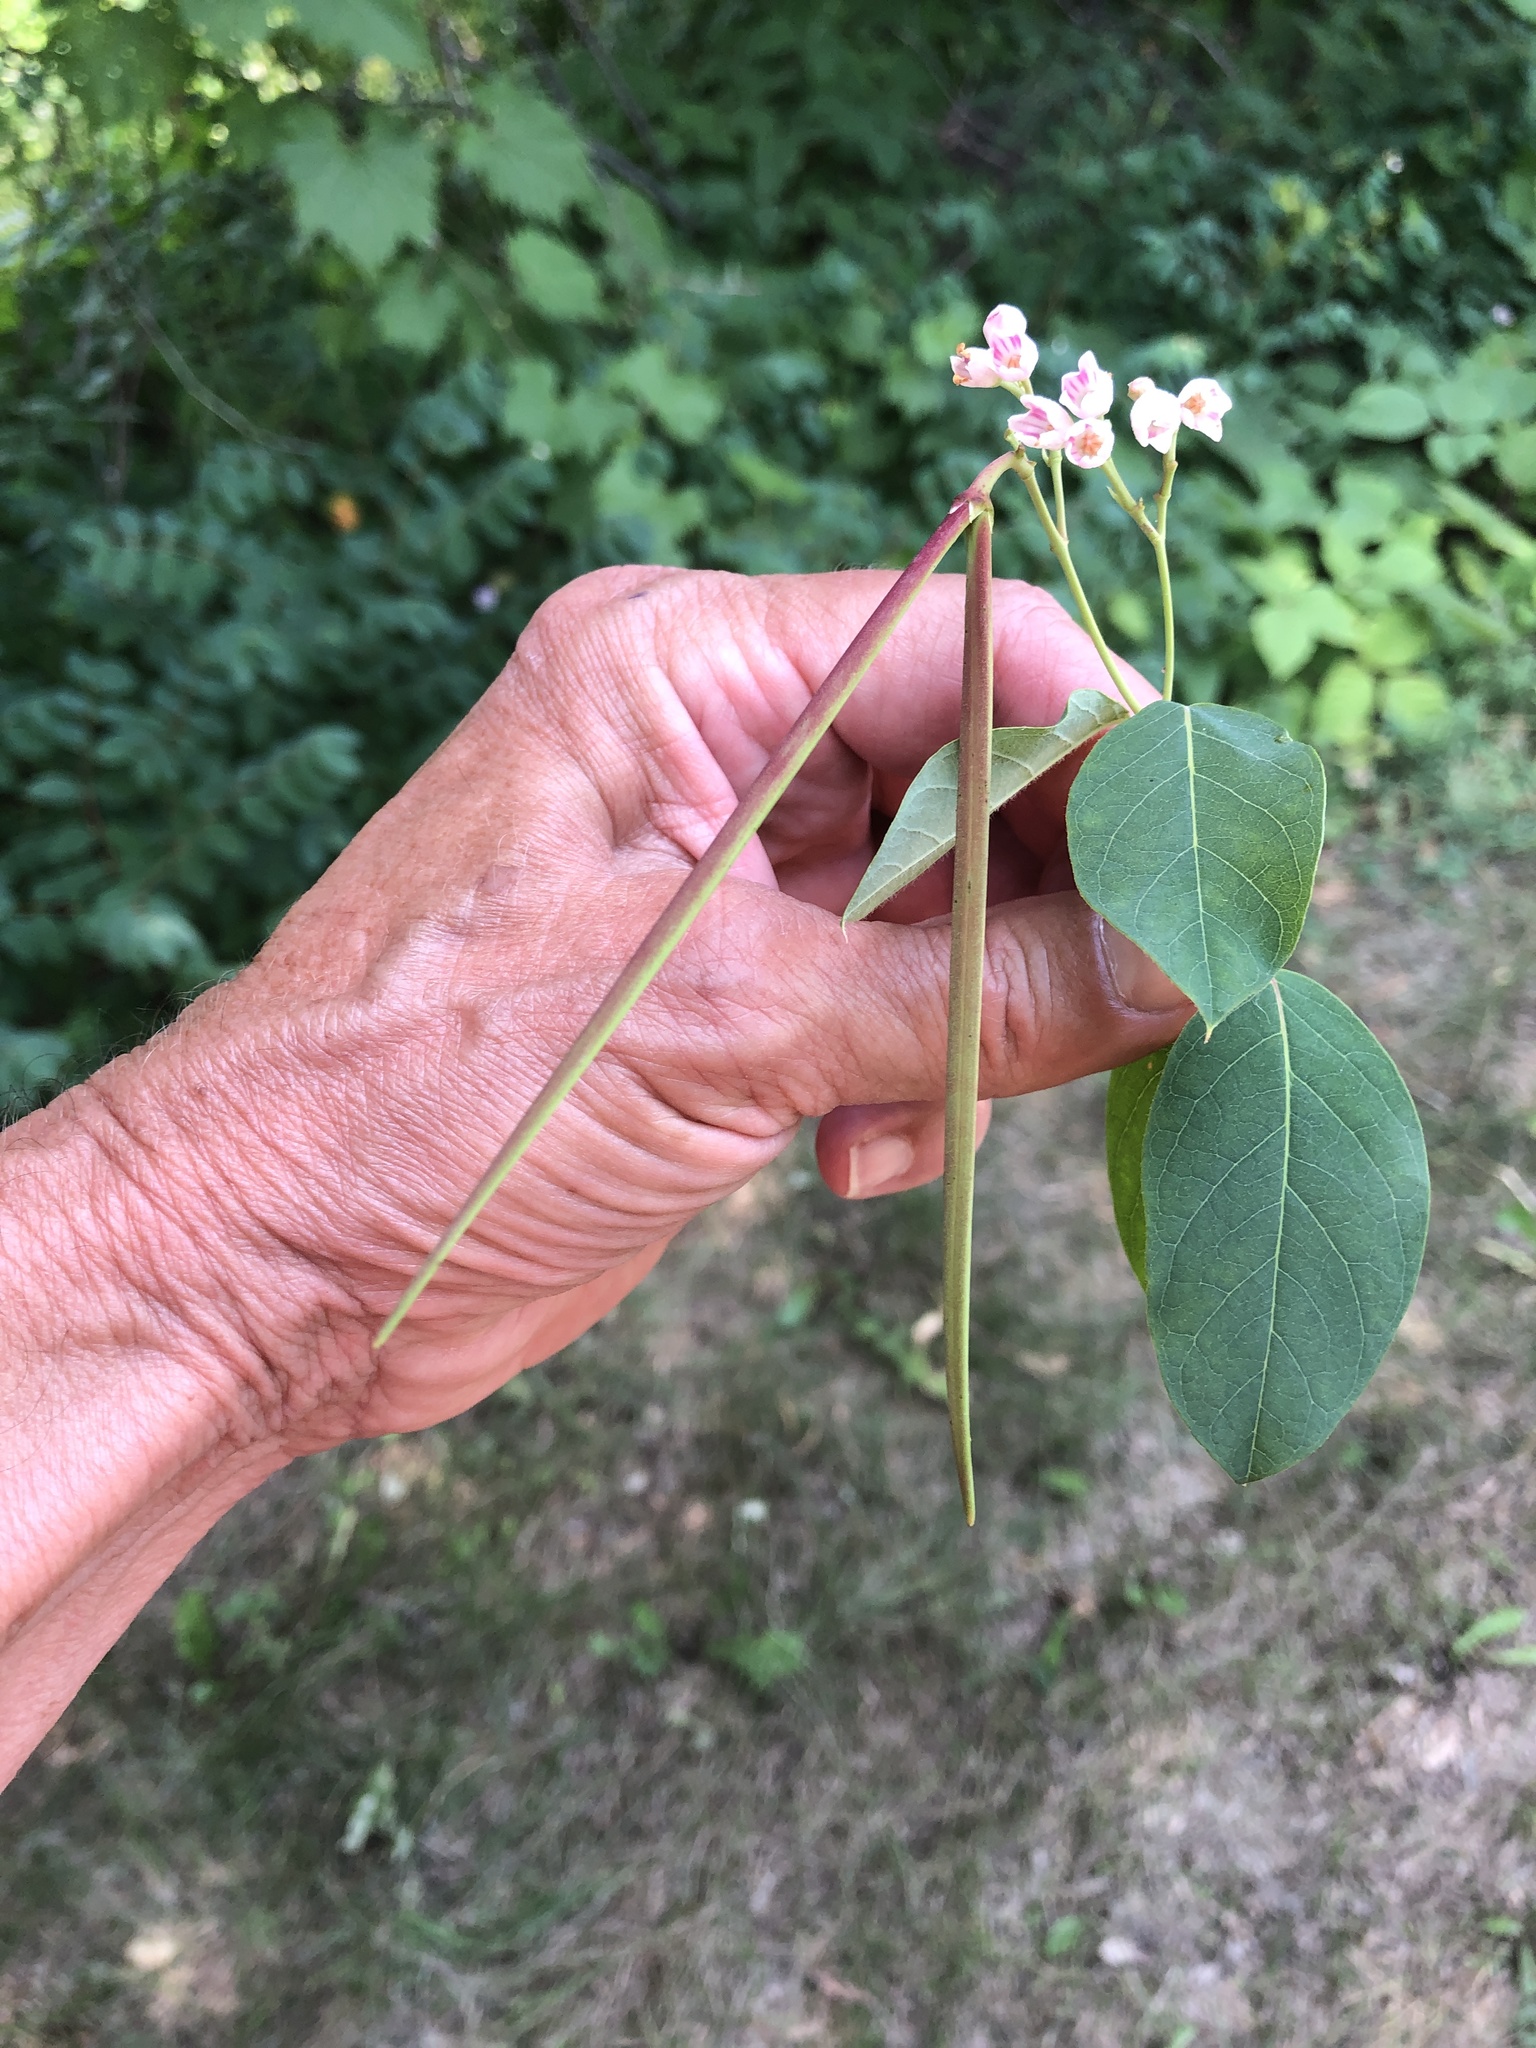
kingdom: Plantae
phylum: Tracheophyta
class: Magnoliopsida
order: Gentianales
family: Apocynaceae
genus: Apocynum
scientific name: Apocynum androsaemifolium
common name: Spreading dogbane
